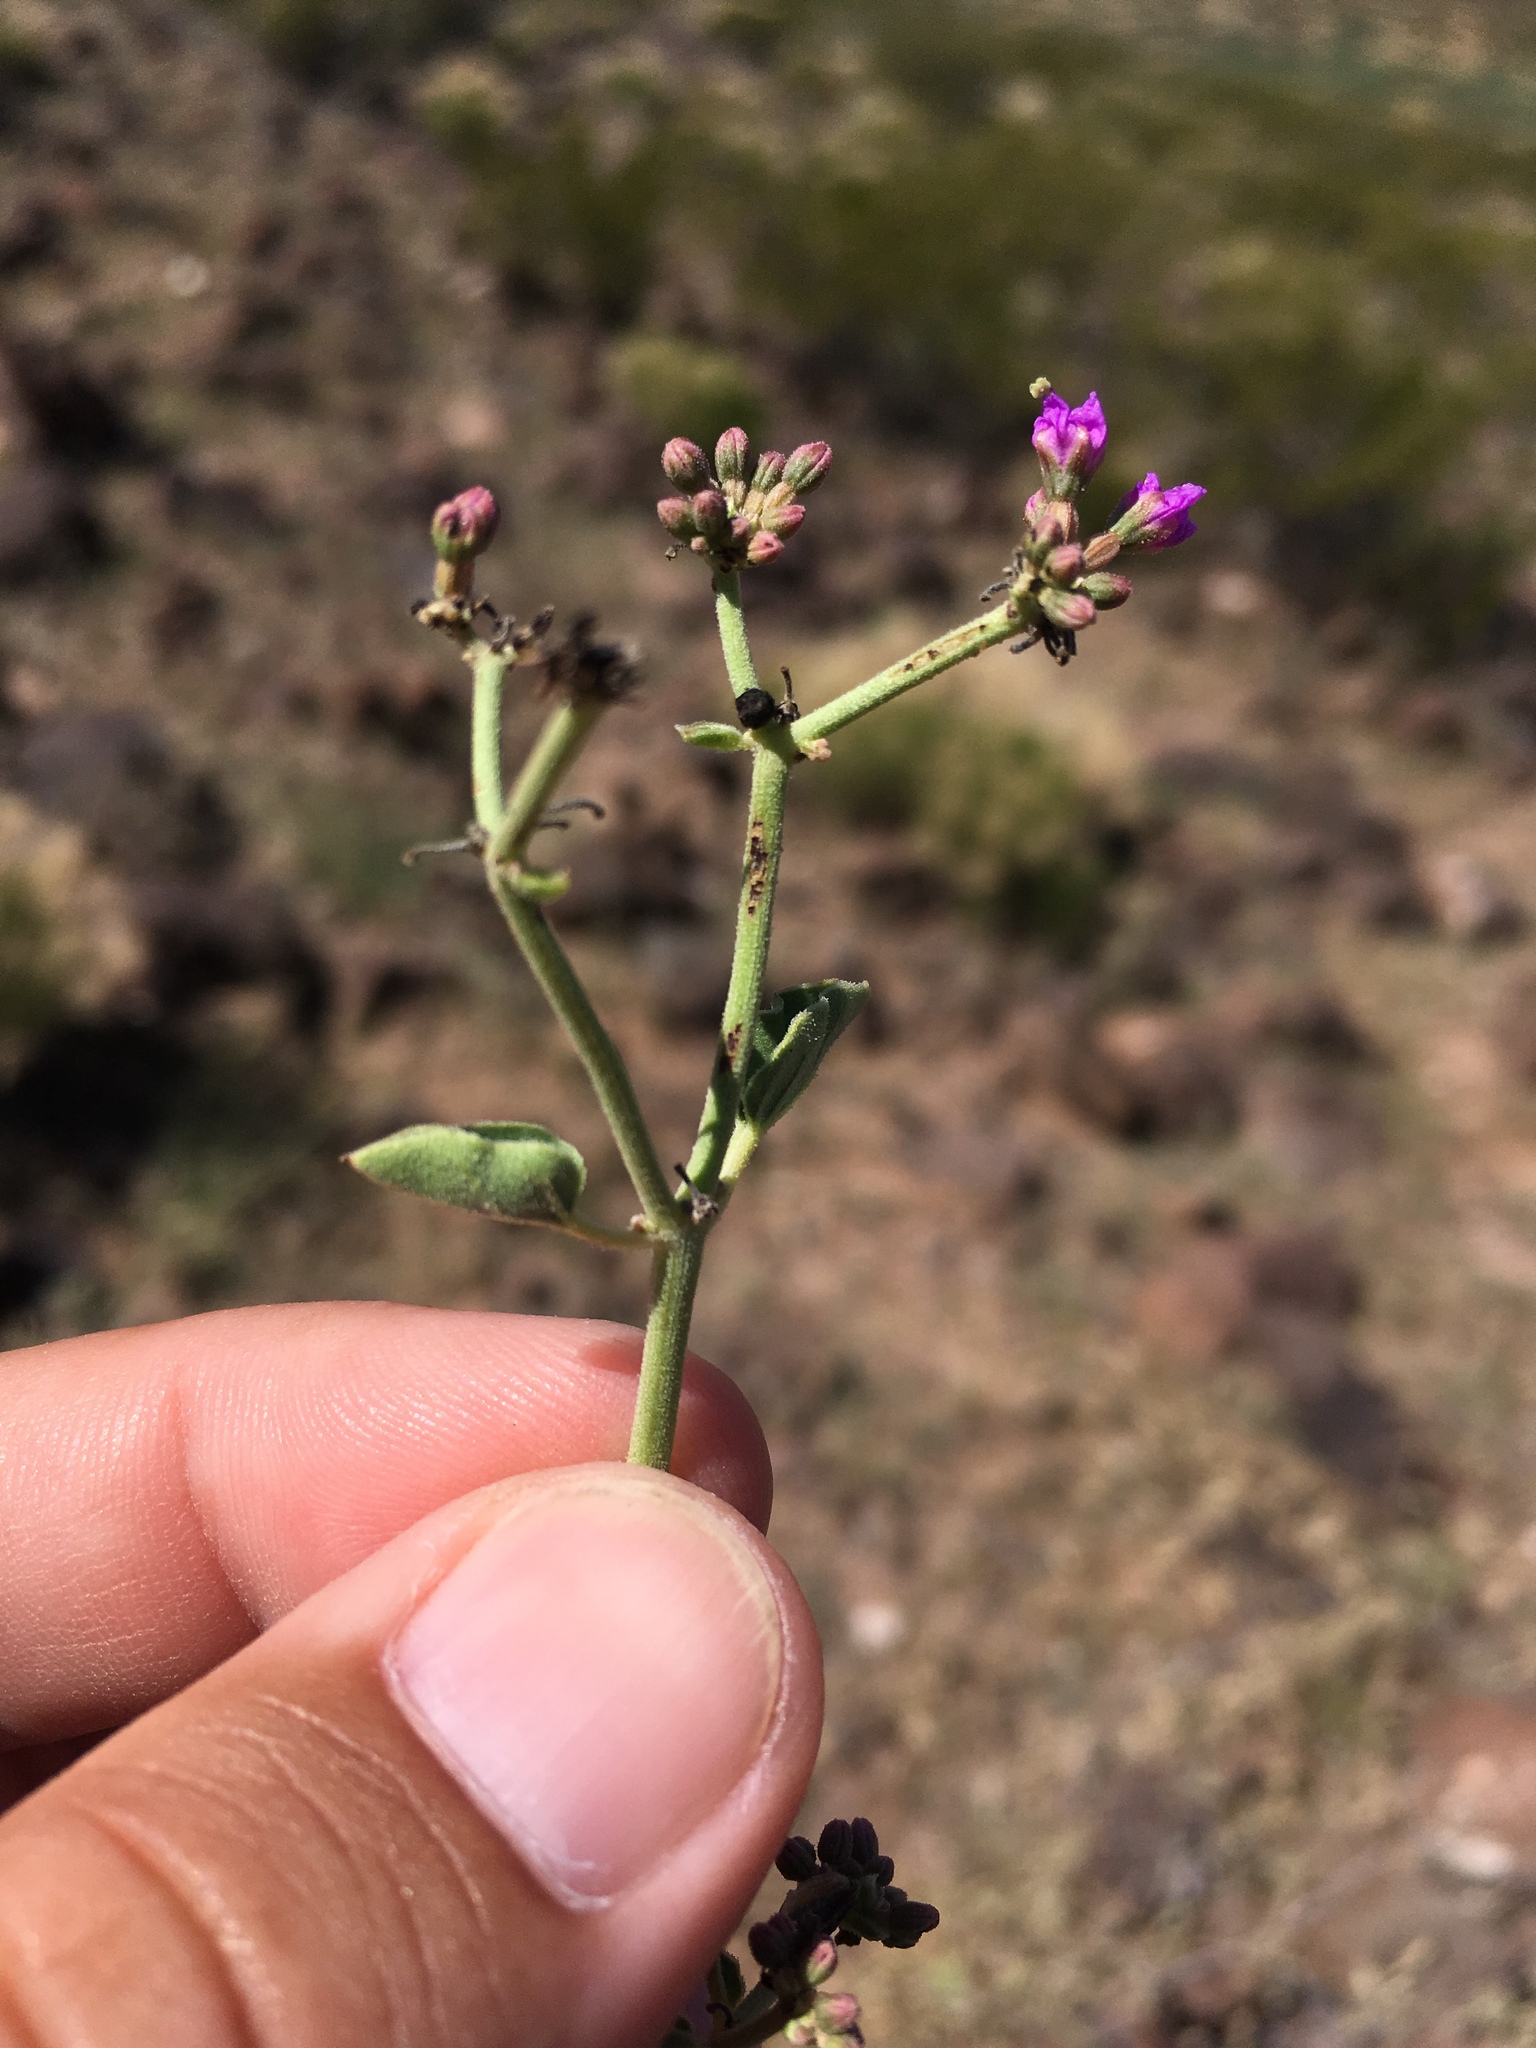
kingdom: Plantae
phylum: Tracheophyta
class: Magnoliopsida
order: Caryophyllales
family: Nyctaginaceae
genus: Acleisanthes
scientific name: Acleisanthes chenopodioides
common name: Goosefoot moonpod
